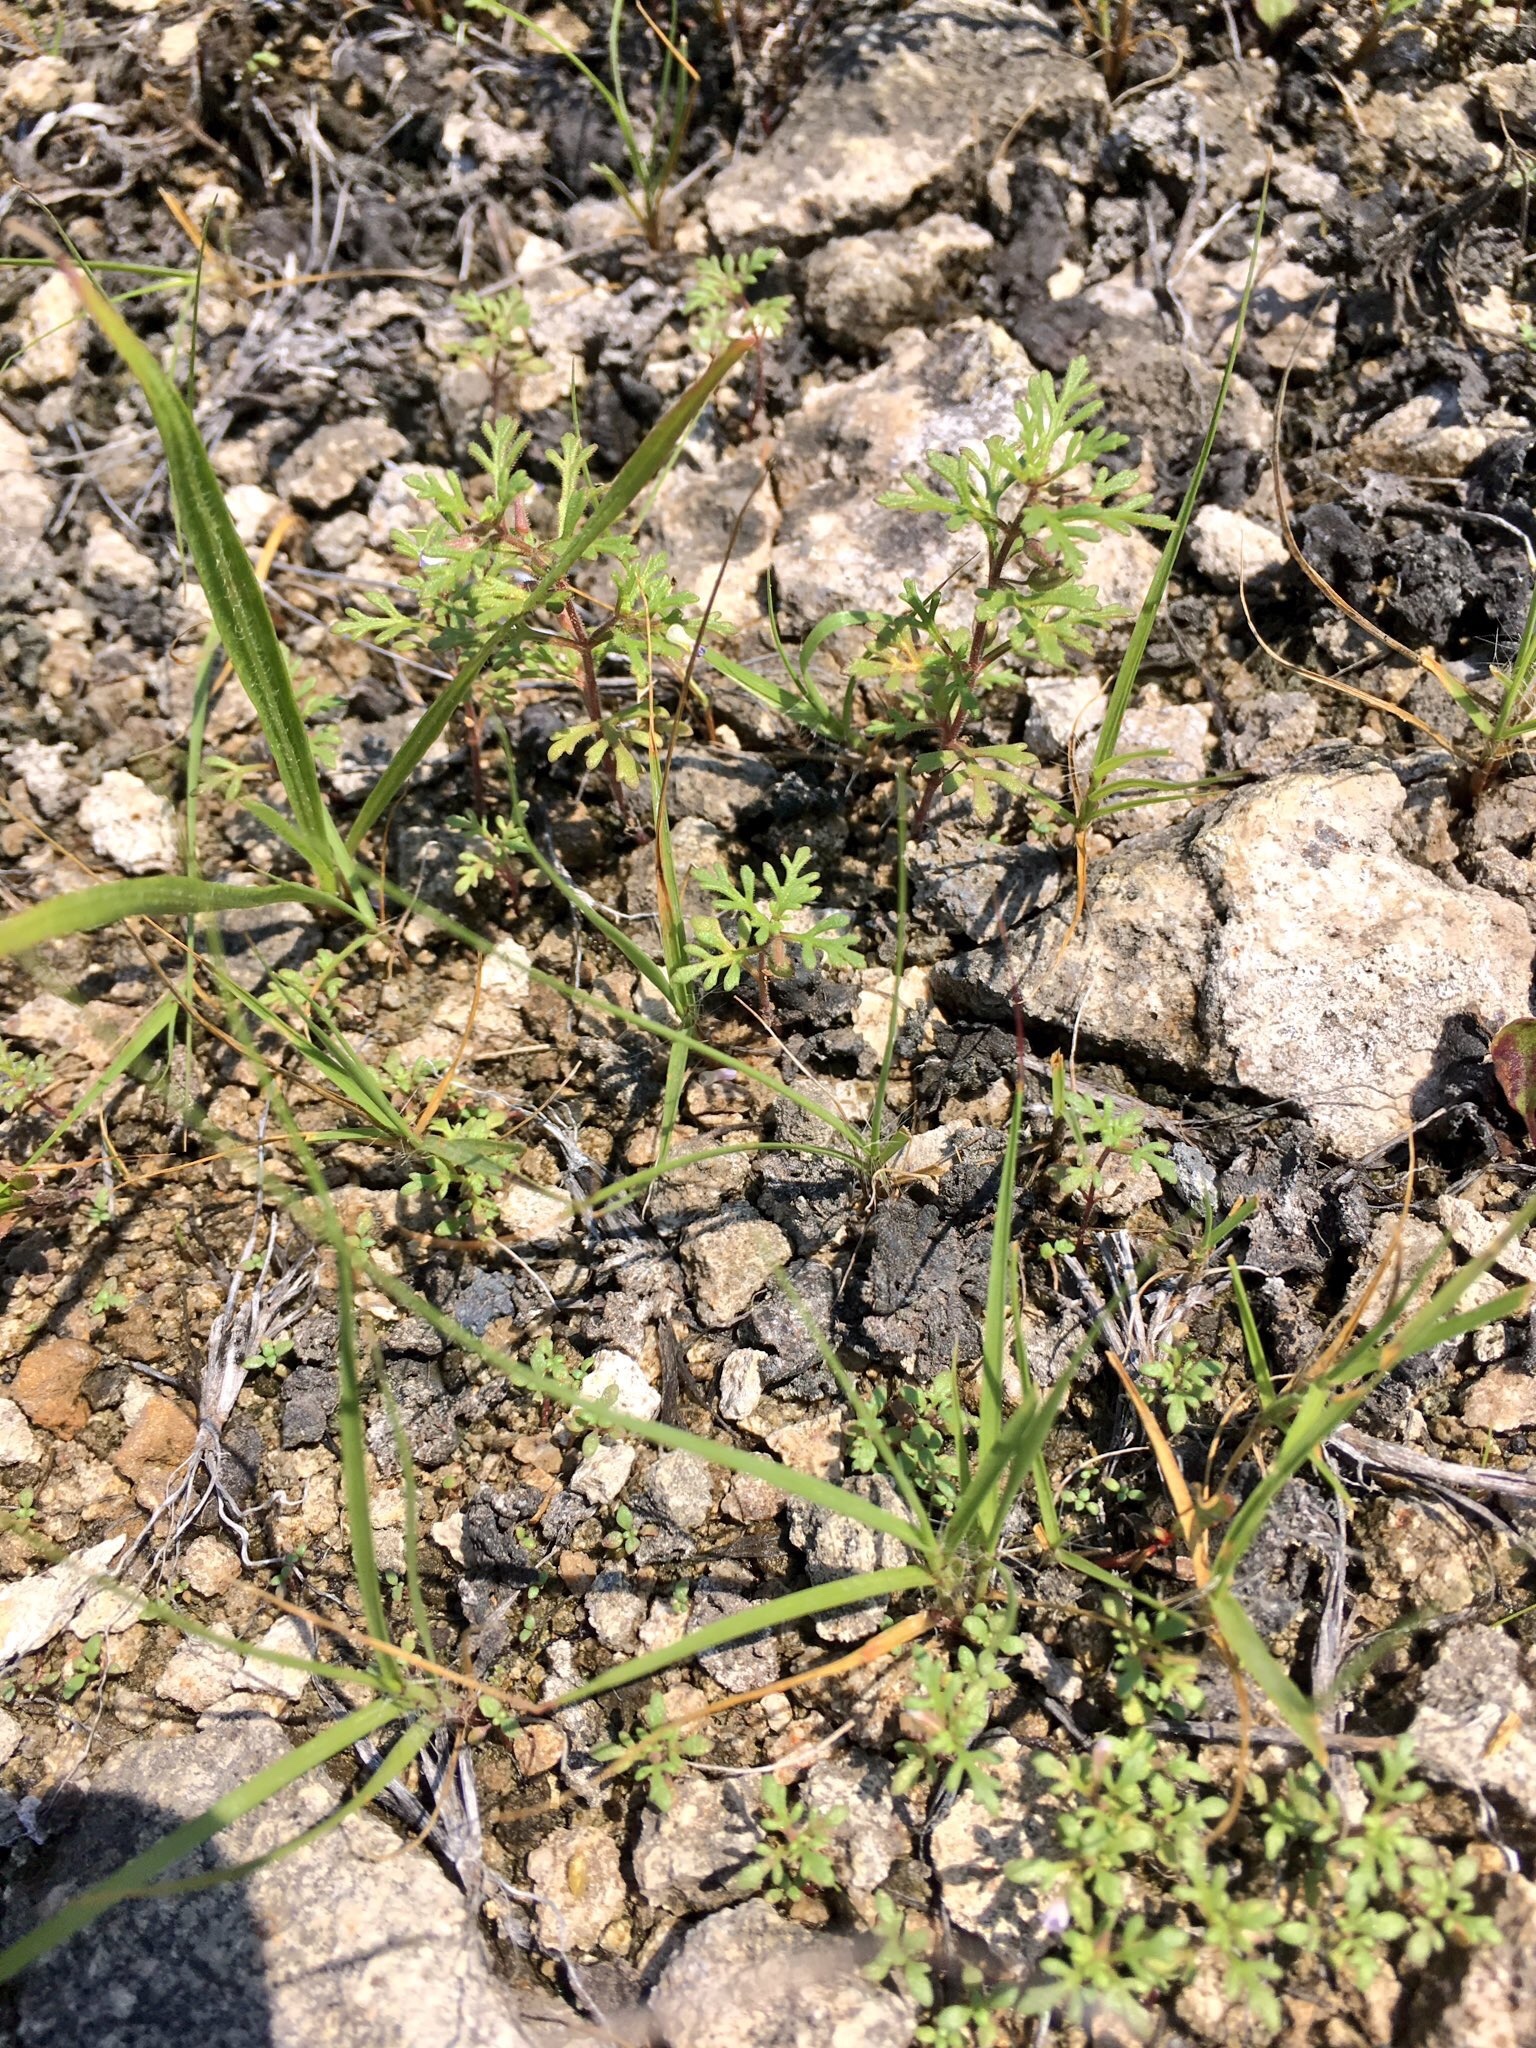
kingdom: Plantae
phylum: Tracheophyta
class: Magnoliopsida
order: Lamiales
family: Plantaginaceae
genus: Leucospora
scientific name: Leucospora multifida
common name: Narrow-leaf paleseed
